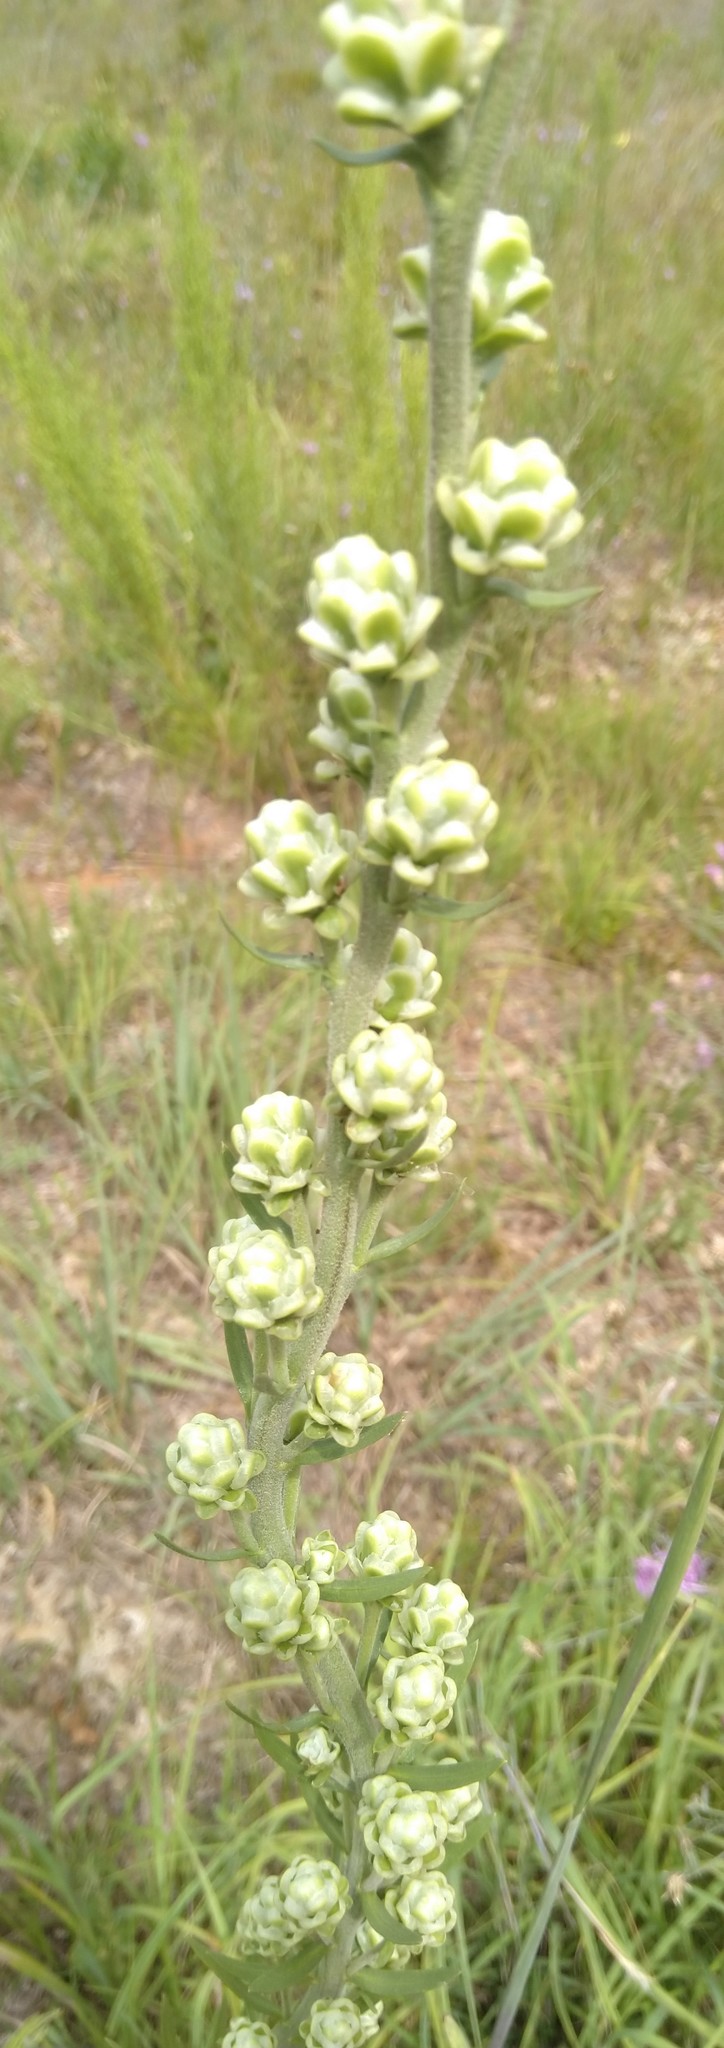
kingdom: Plantae
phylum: Tracheophyta
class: Magnoliopsida
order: Asterales
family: Asteraceae
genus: Liatris
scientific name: Liatris aspera
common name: Lacerate blazing-star
